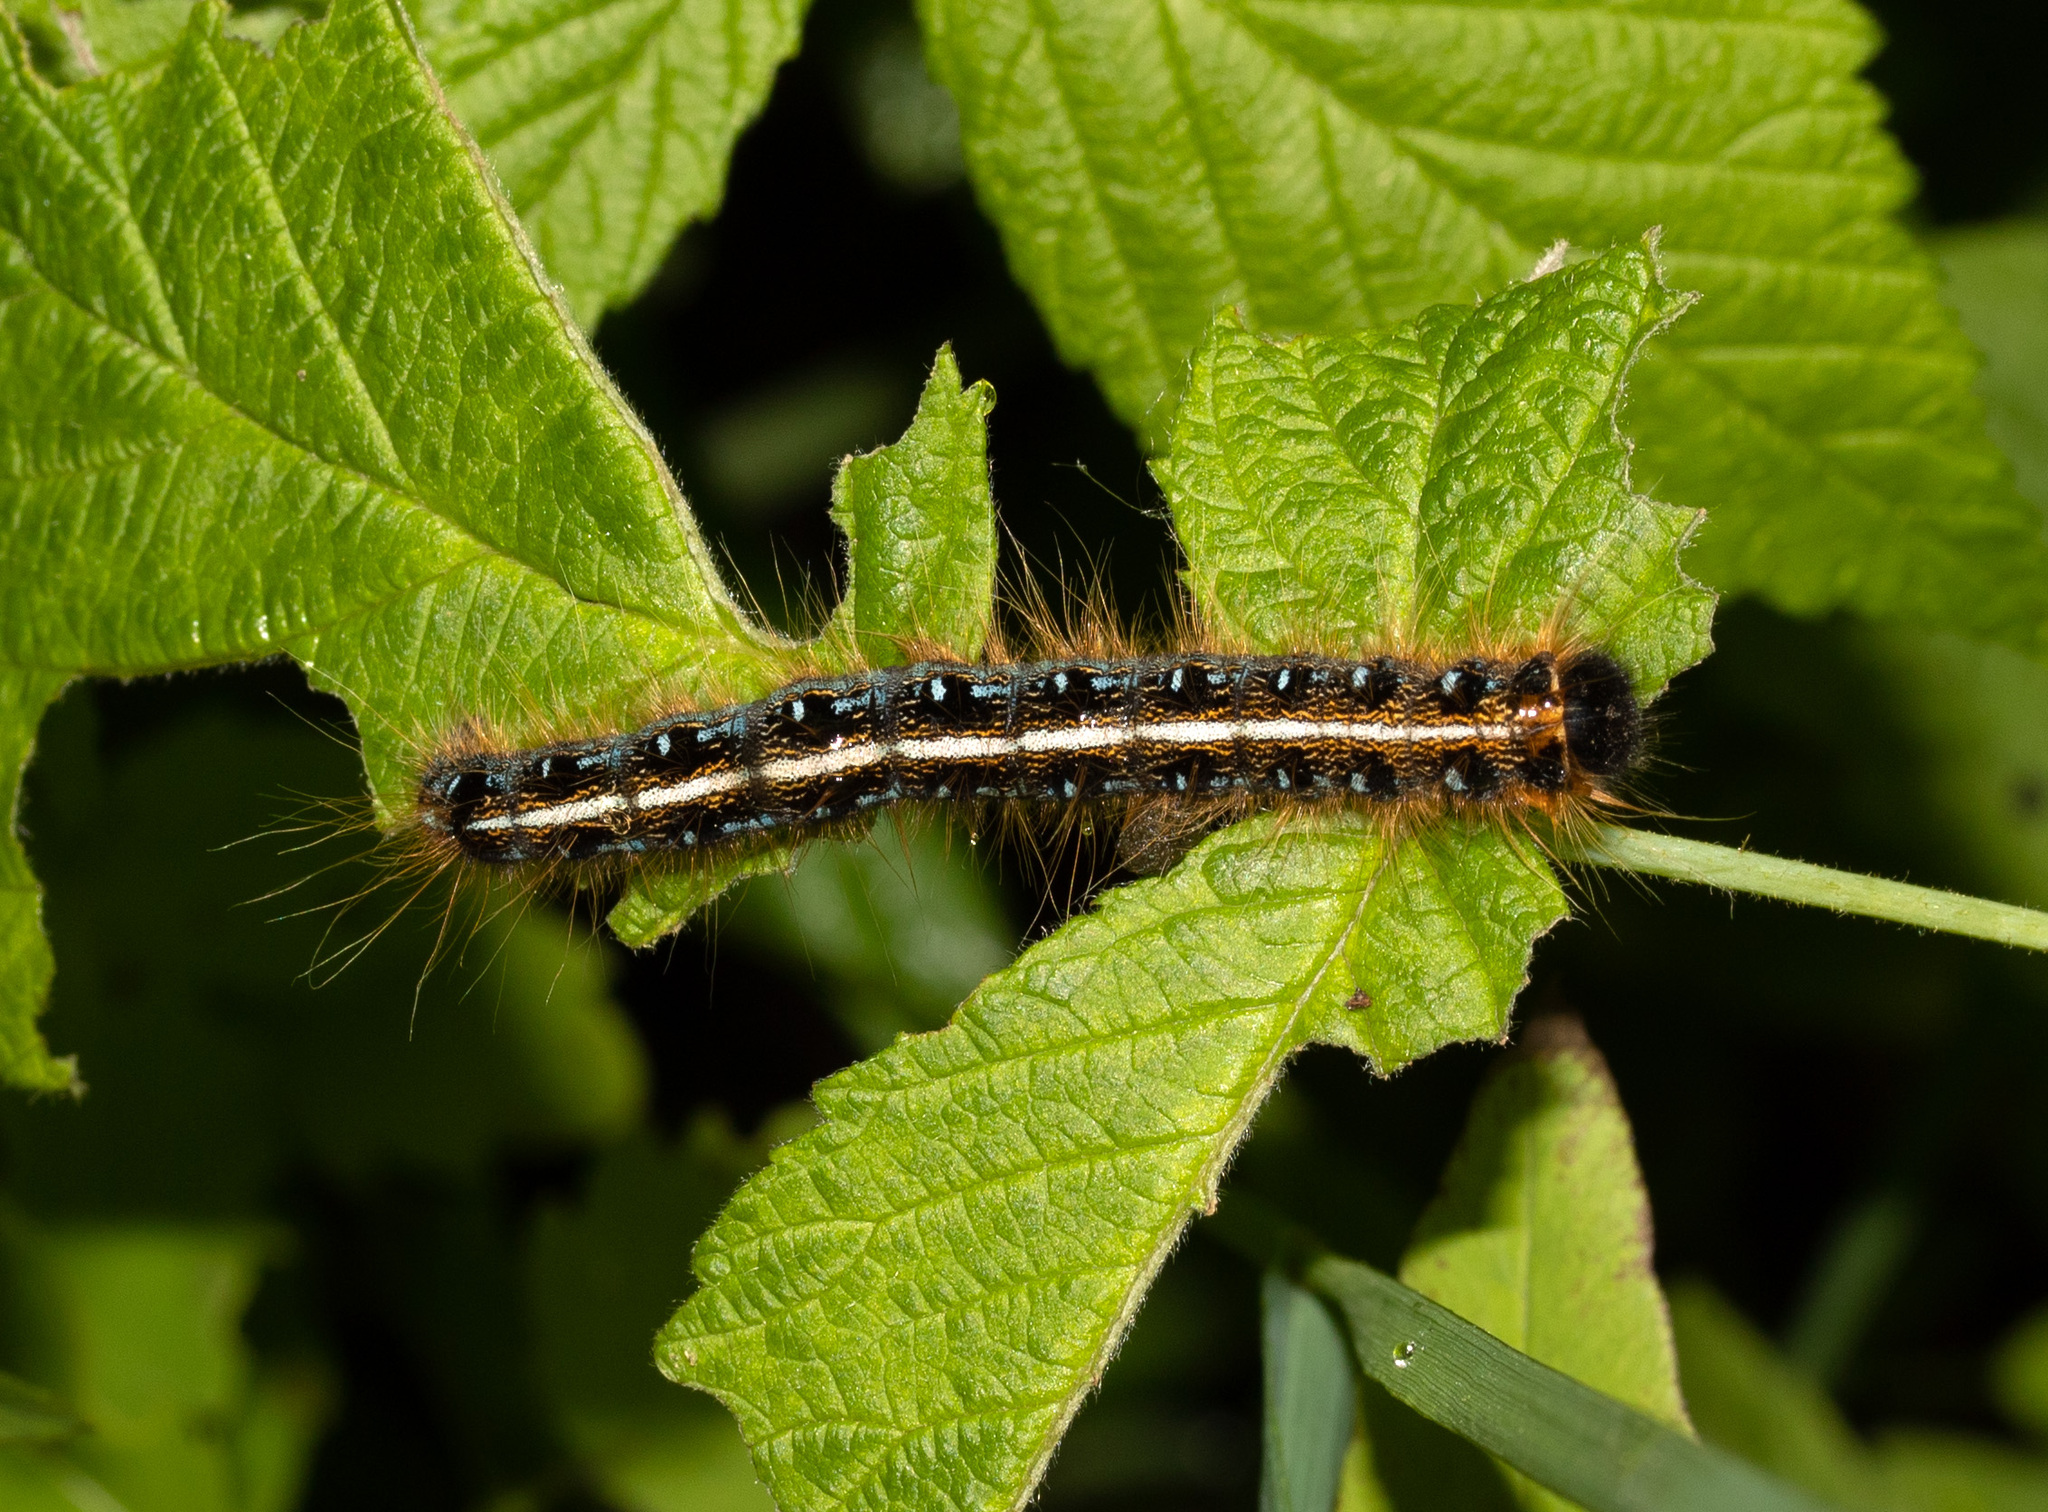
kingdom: Animalia
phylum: Arthropoda
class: Insecta
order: Lepidoptera
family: Lasiocampidae
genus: Malacosoma
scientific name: Malacosoma americana
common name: Eastern tent caterpillar moth
